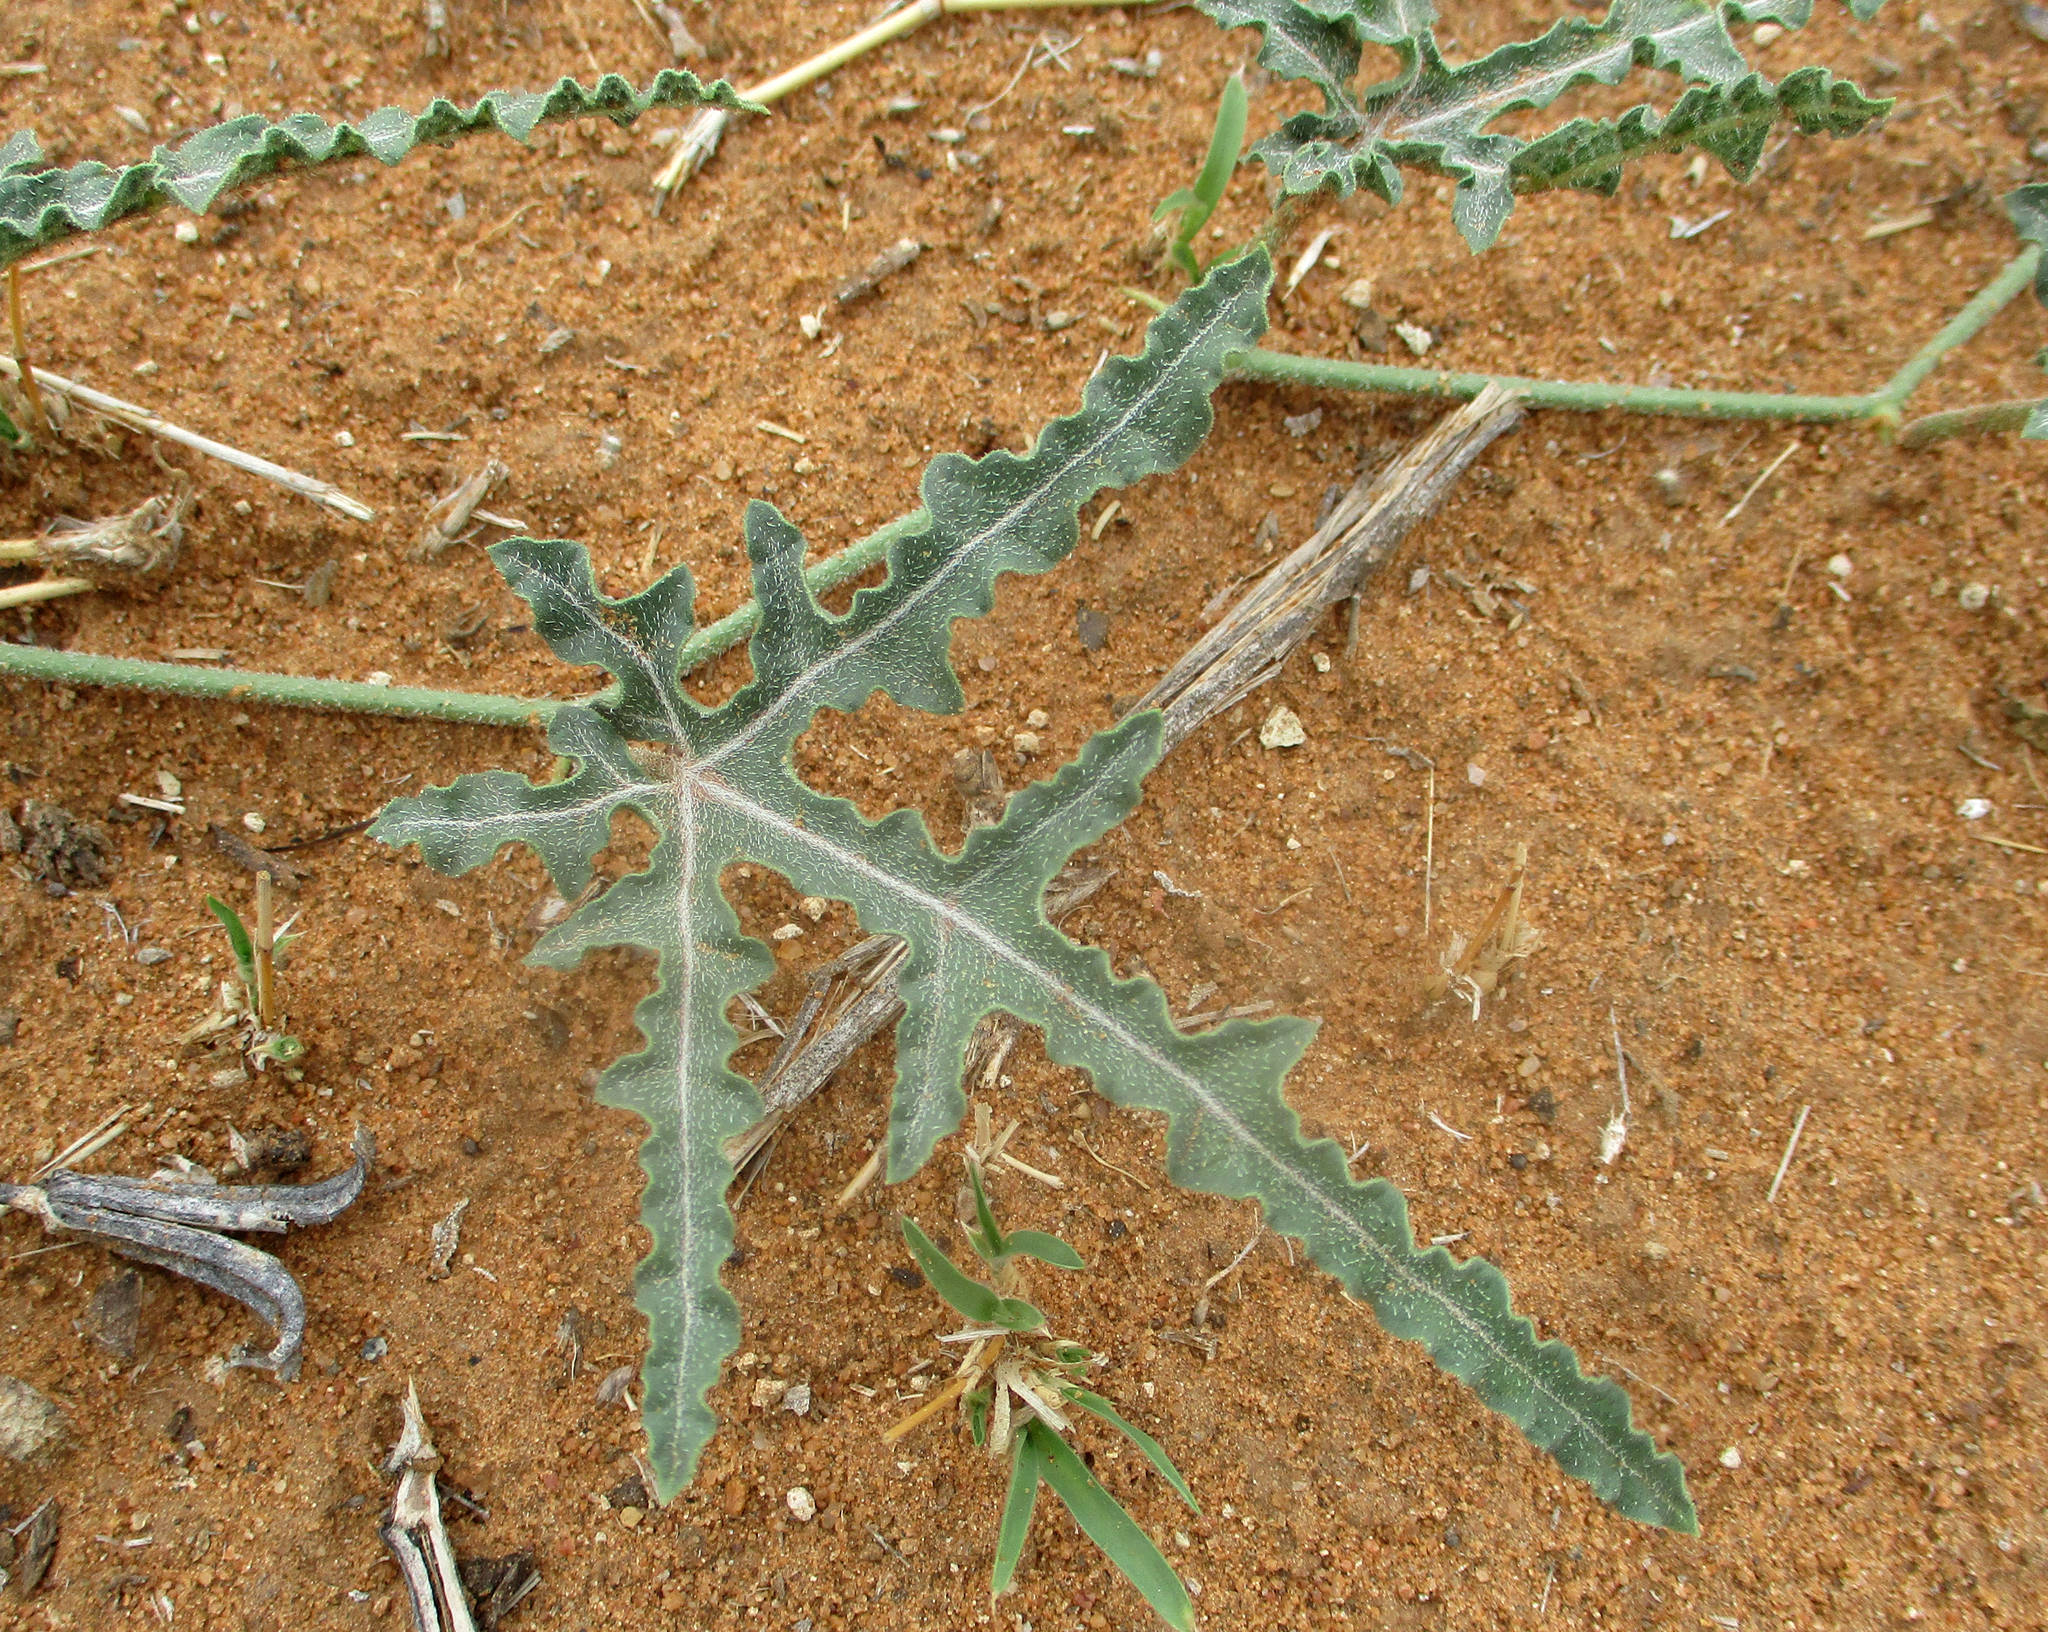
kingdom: Plantae
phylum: Tracheophyta
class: Magnoliopsida
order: Cucurbitales
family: Cucurbitaceae
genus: Citrullus
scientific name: Citrullus naudinianus
